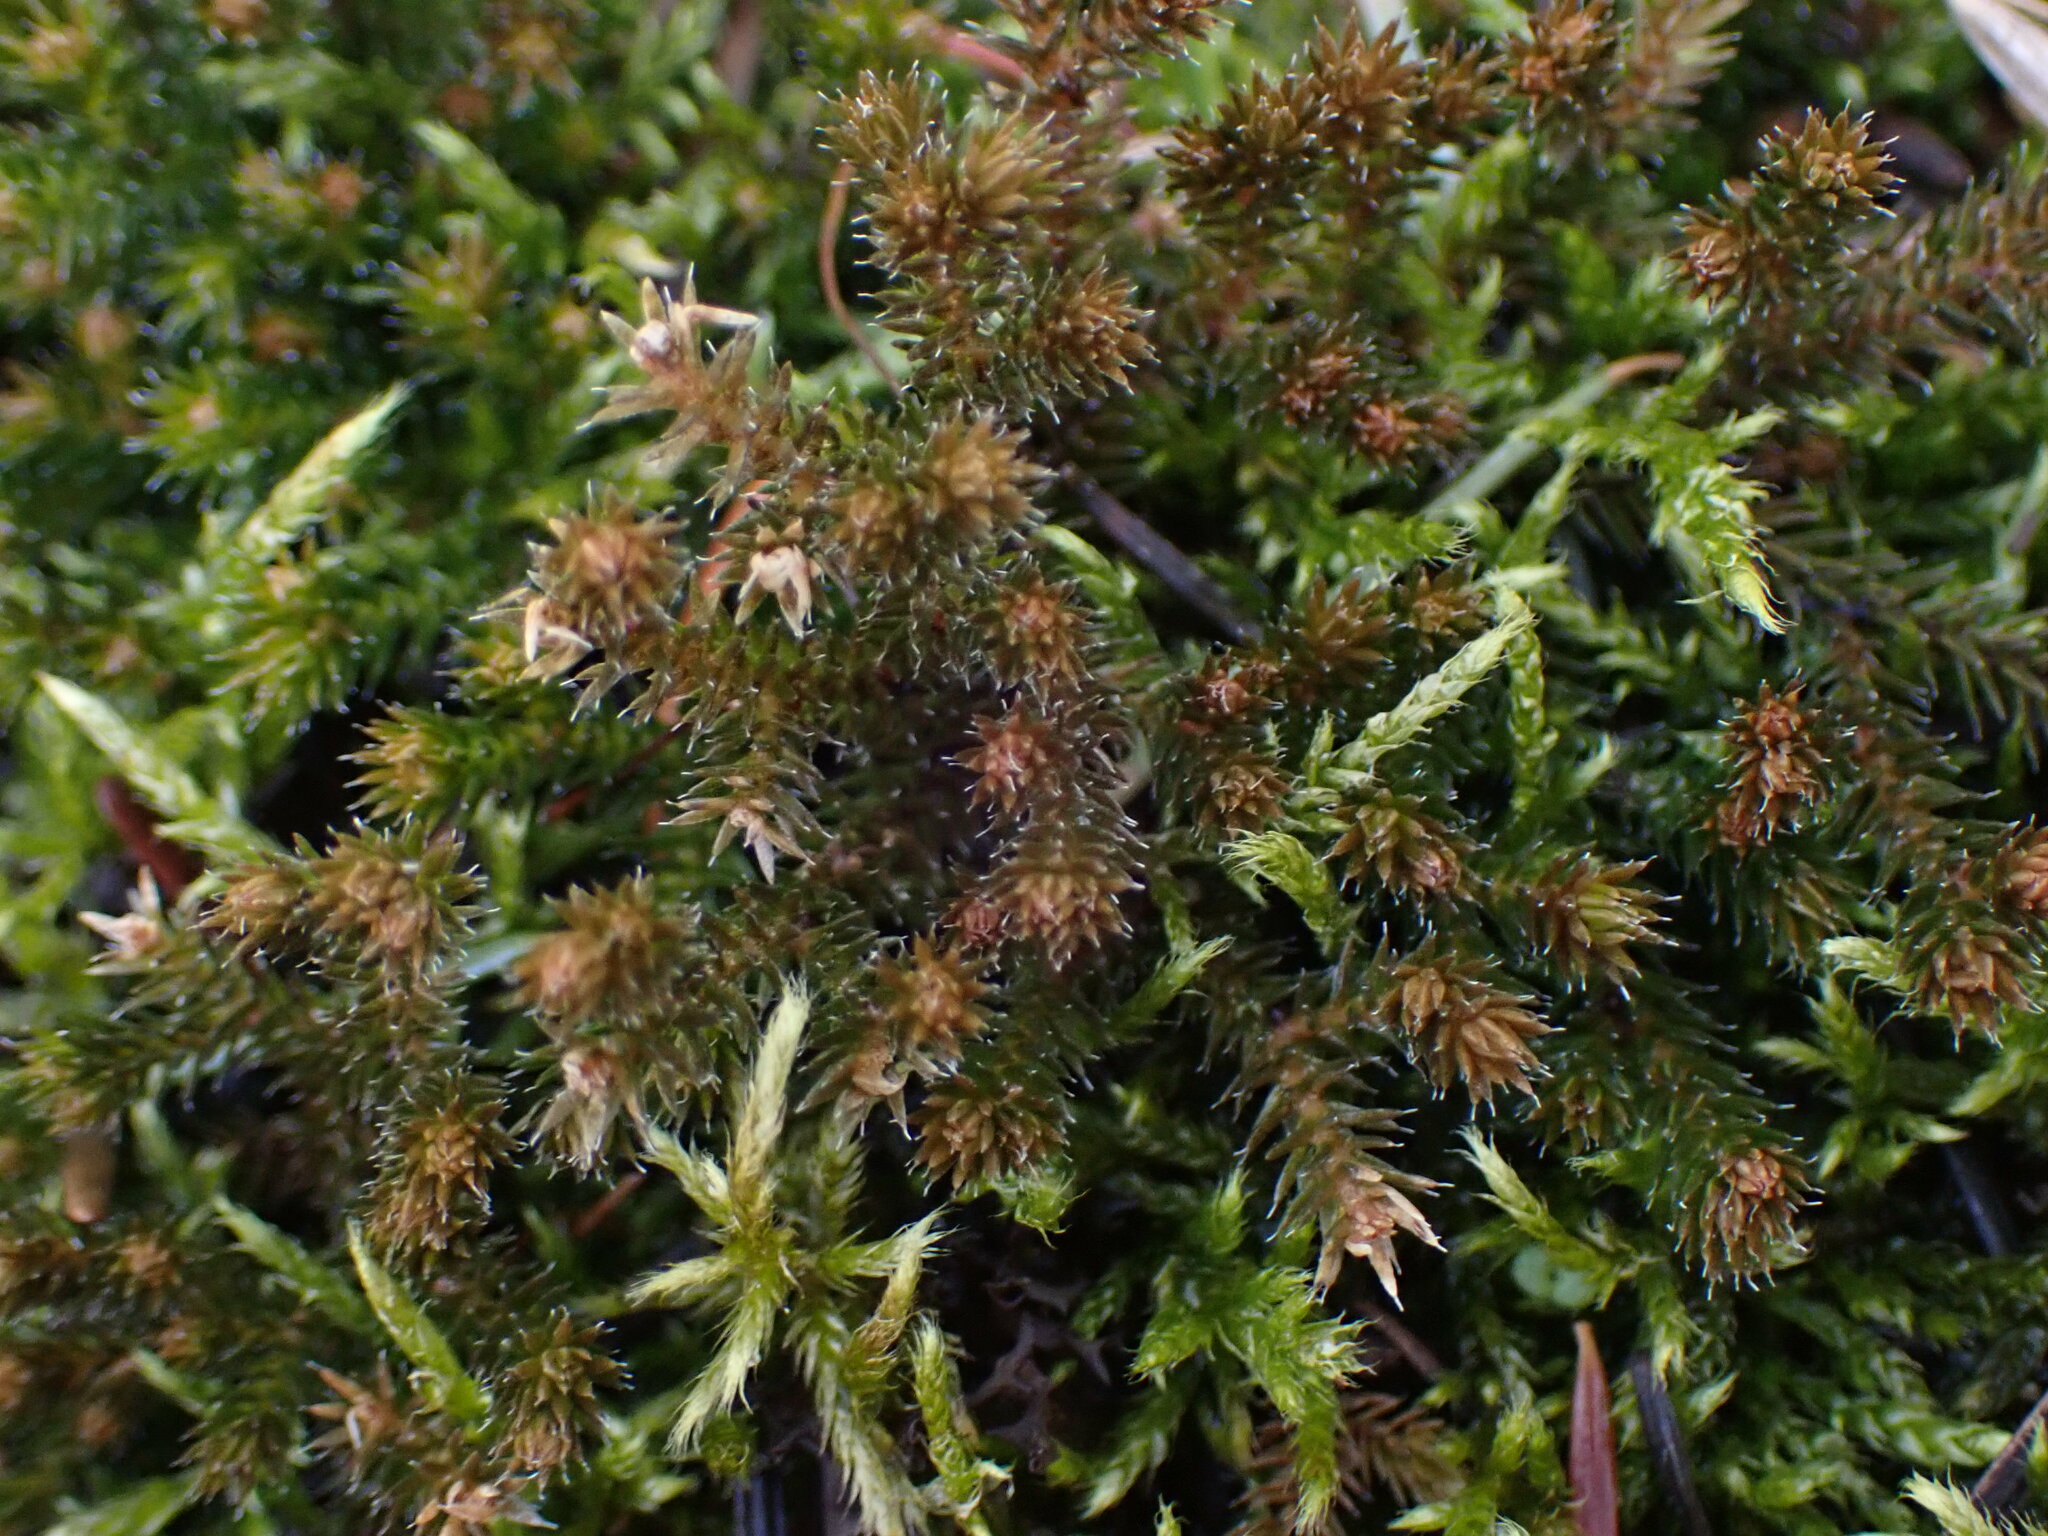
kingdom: Plantae
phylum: Tracheophyta
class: Lycopodiopsida
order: Selaginellales
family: Selaginellaceae
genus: Selaginella
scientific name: Selaginella wallacei
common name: Wallace's selaginella
